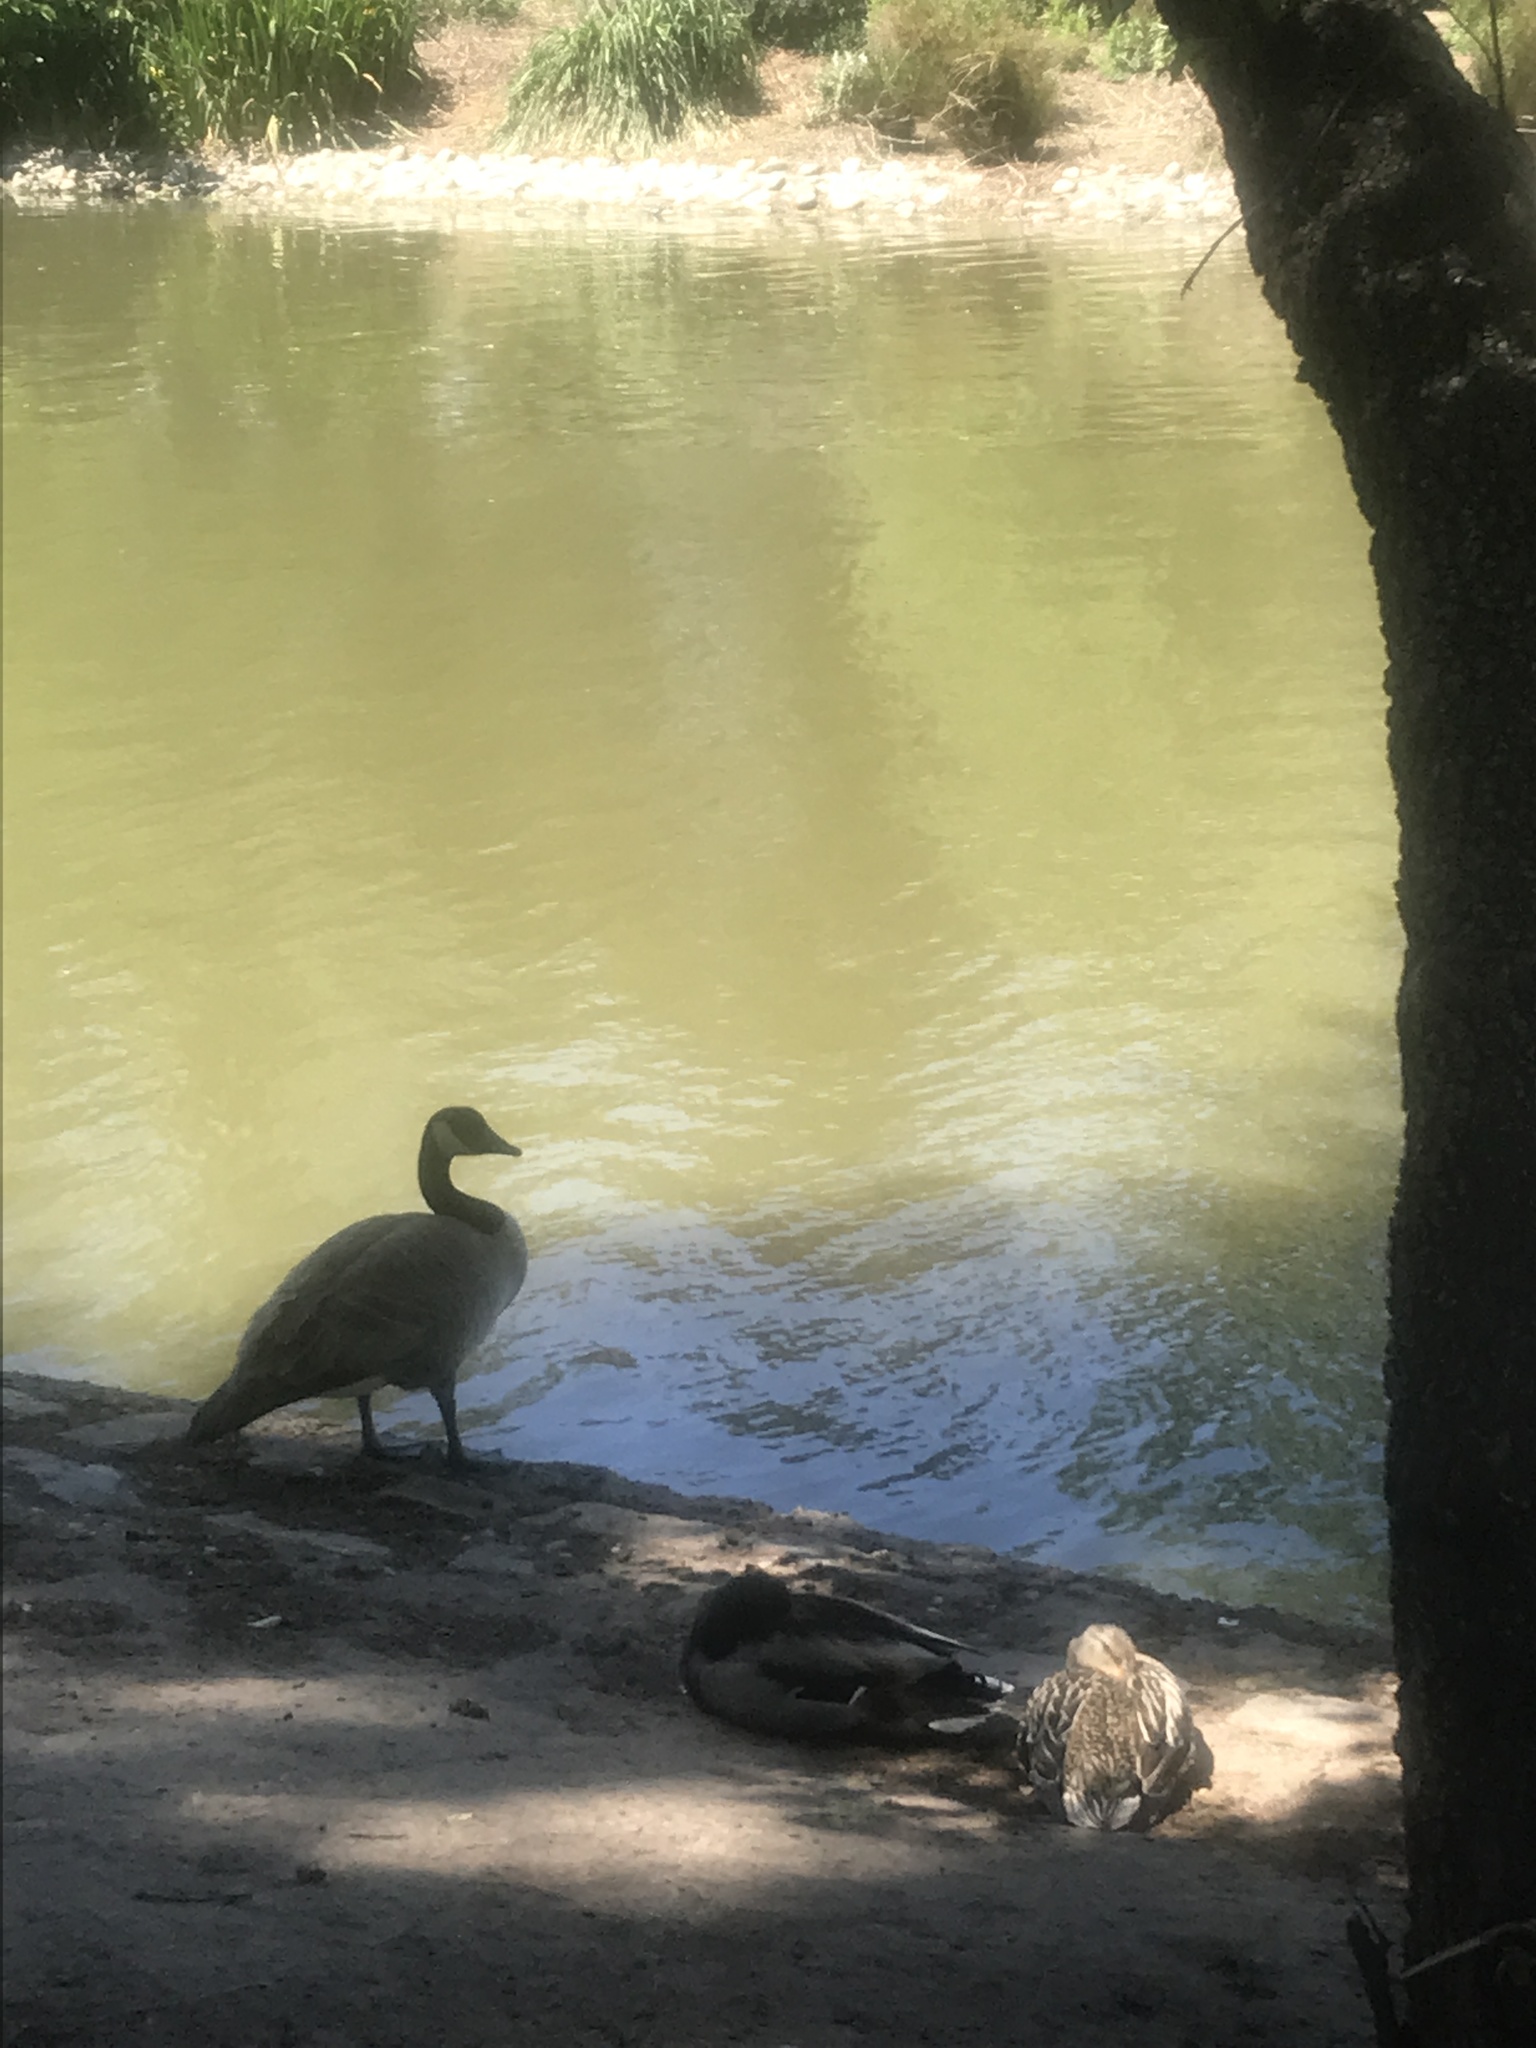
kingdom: Animalia
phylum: Chordata
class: Aves
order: Anseriformes
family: Anatidae
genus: Branta
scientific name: Branta canadensis
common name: Canada goose
